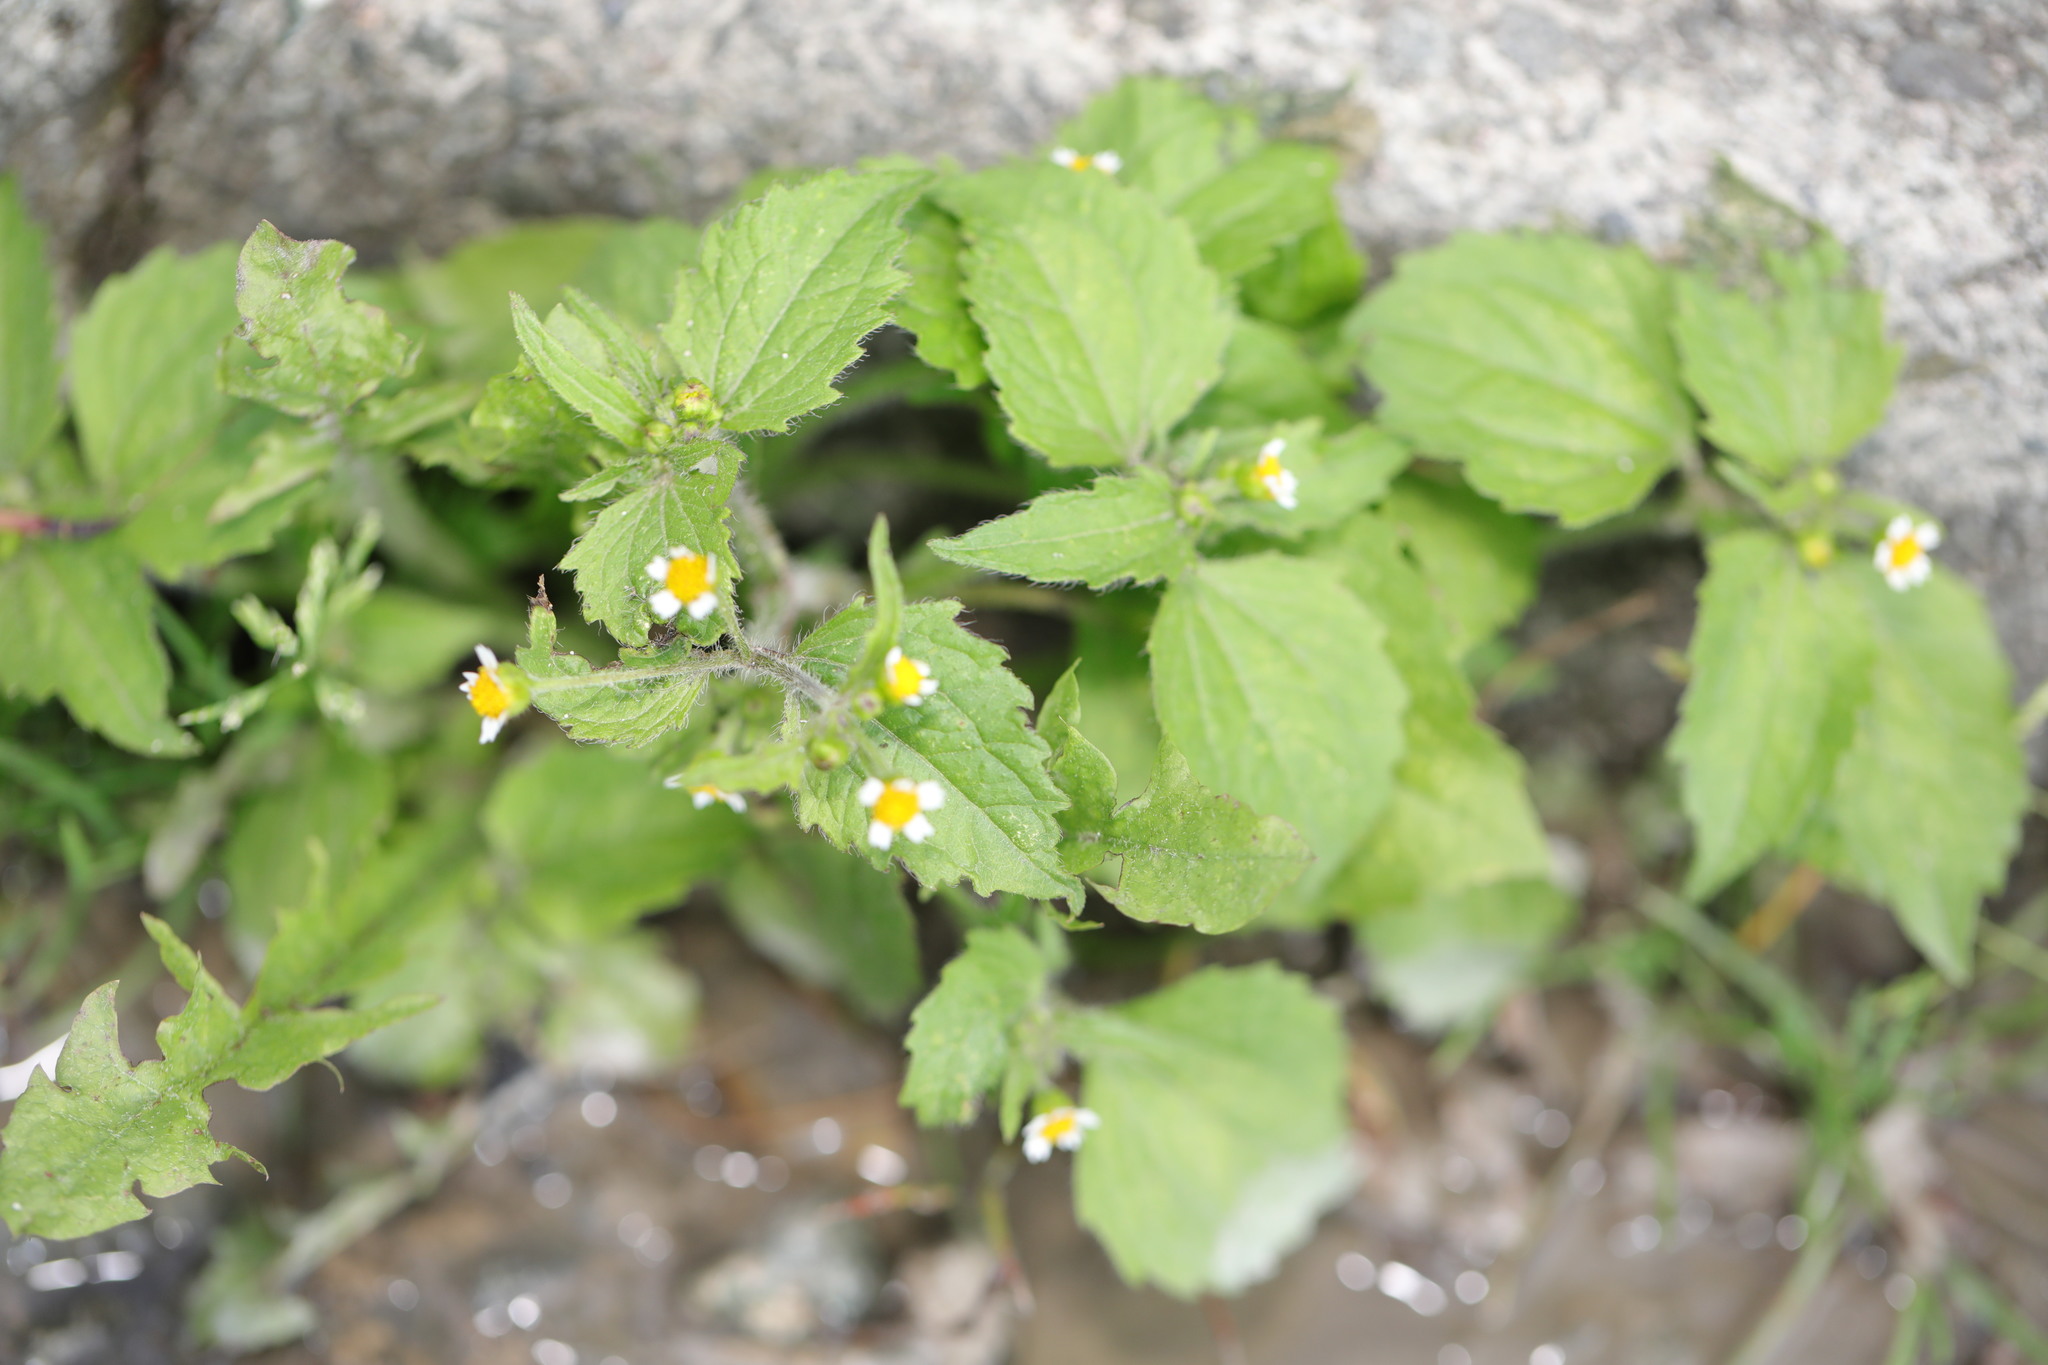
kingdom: Plantae
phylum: Tracheophyta
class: Magnoliopsida
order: Asterales
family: Asteraceae
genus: Galinsoga
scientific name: Galinsoga quadriradiata
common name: Shaggy soldier
